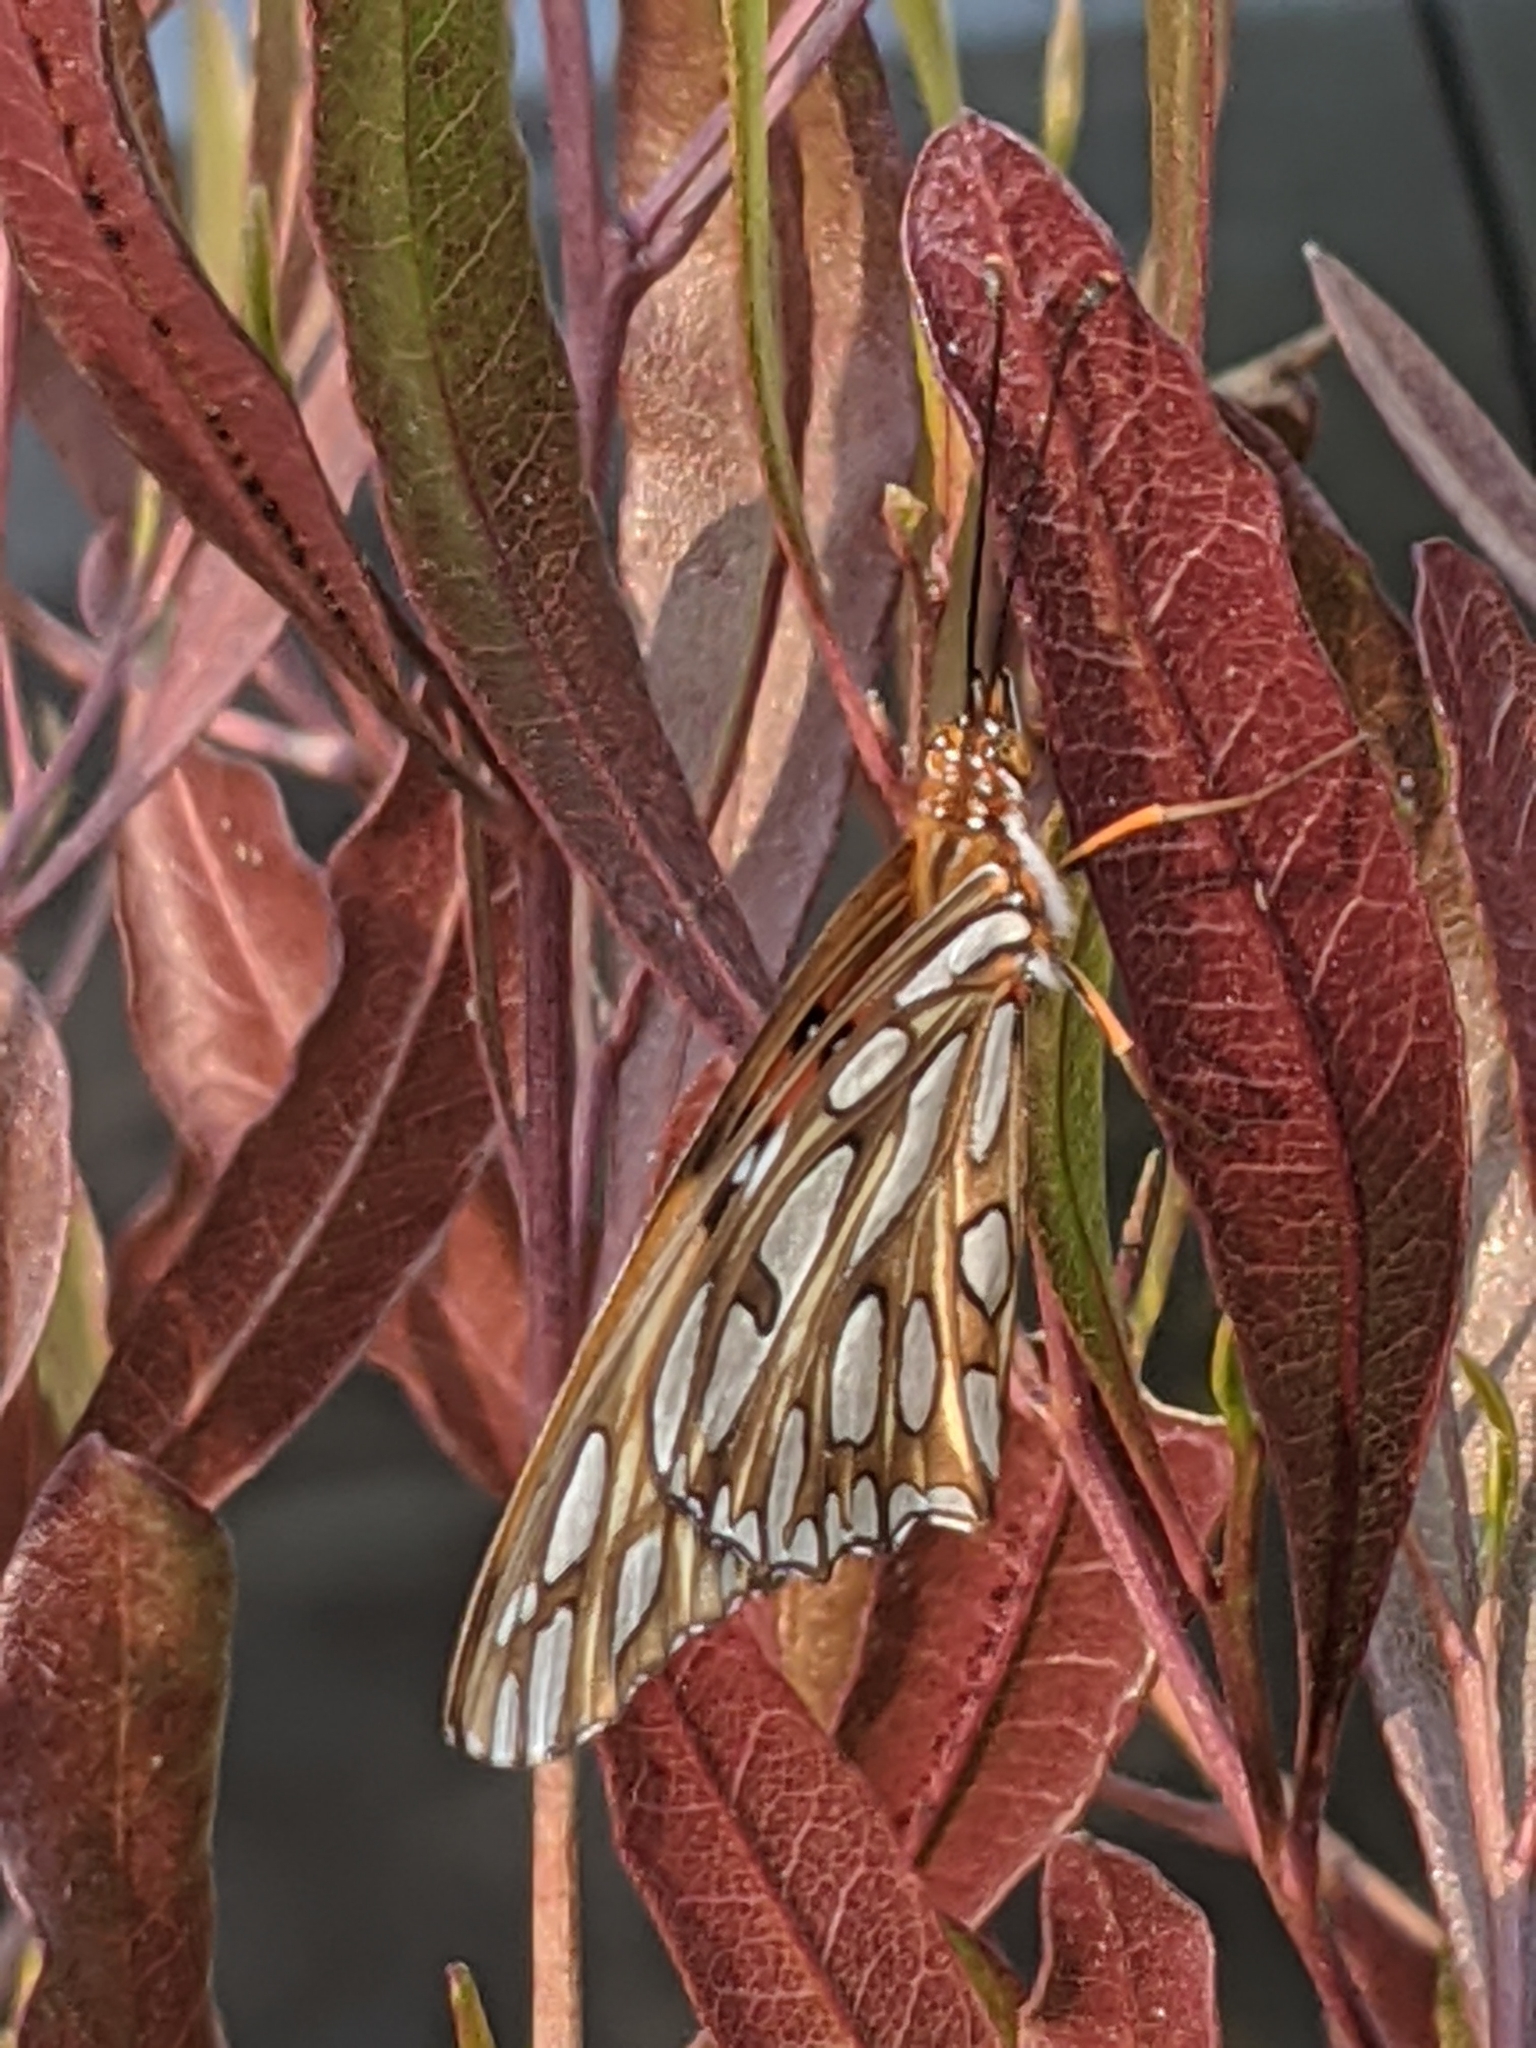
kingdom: Animalia
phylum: Arthropoda
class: Insecta
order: Lepidoptera
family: Nymphalidae
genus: Dione
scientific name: Dione vanillae
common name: Gulf fritillary
